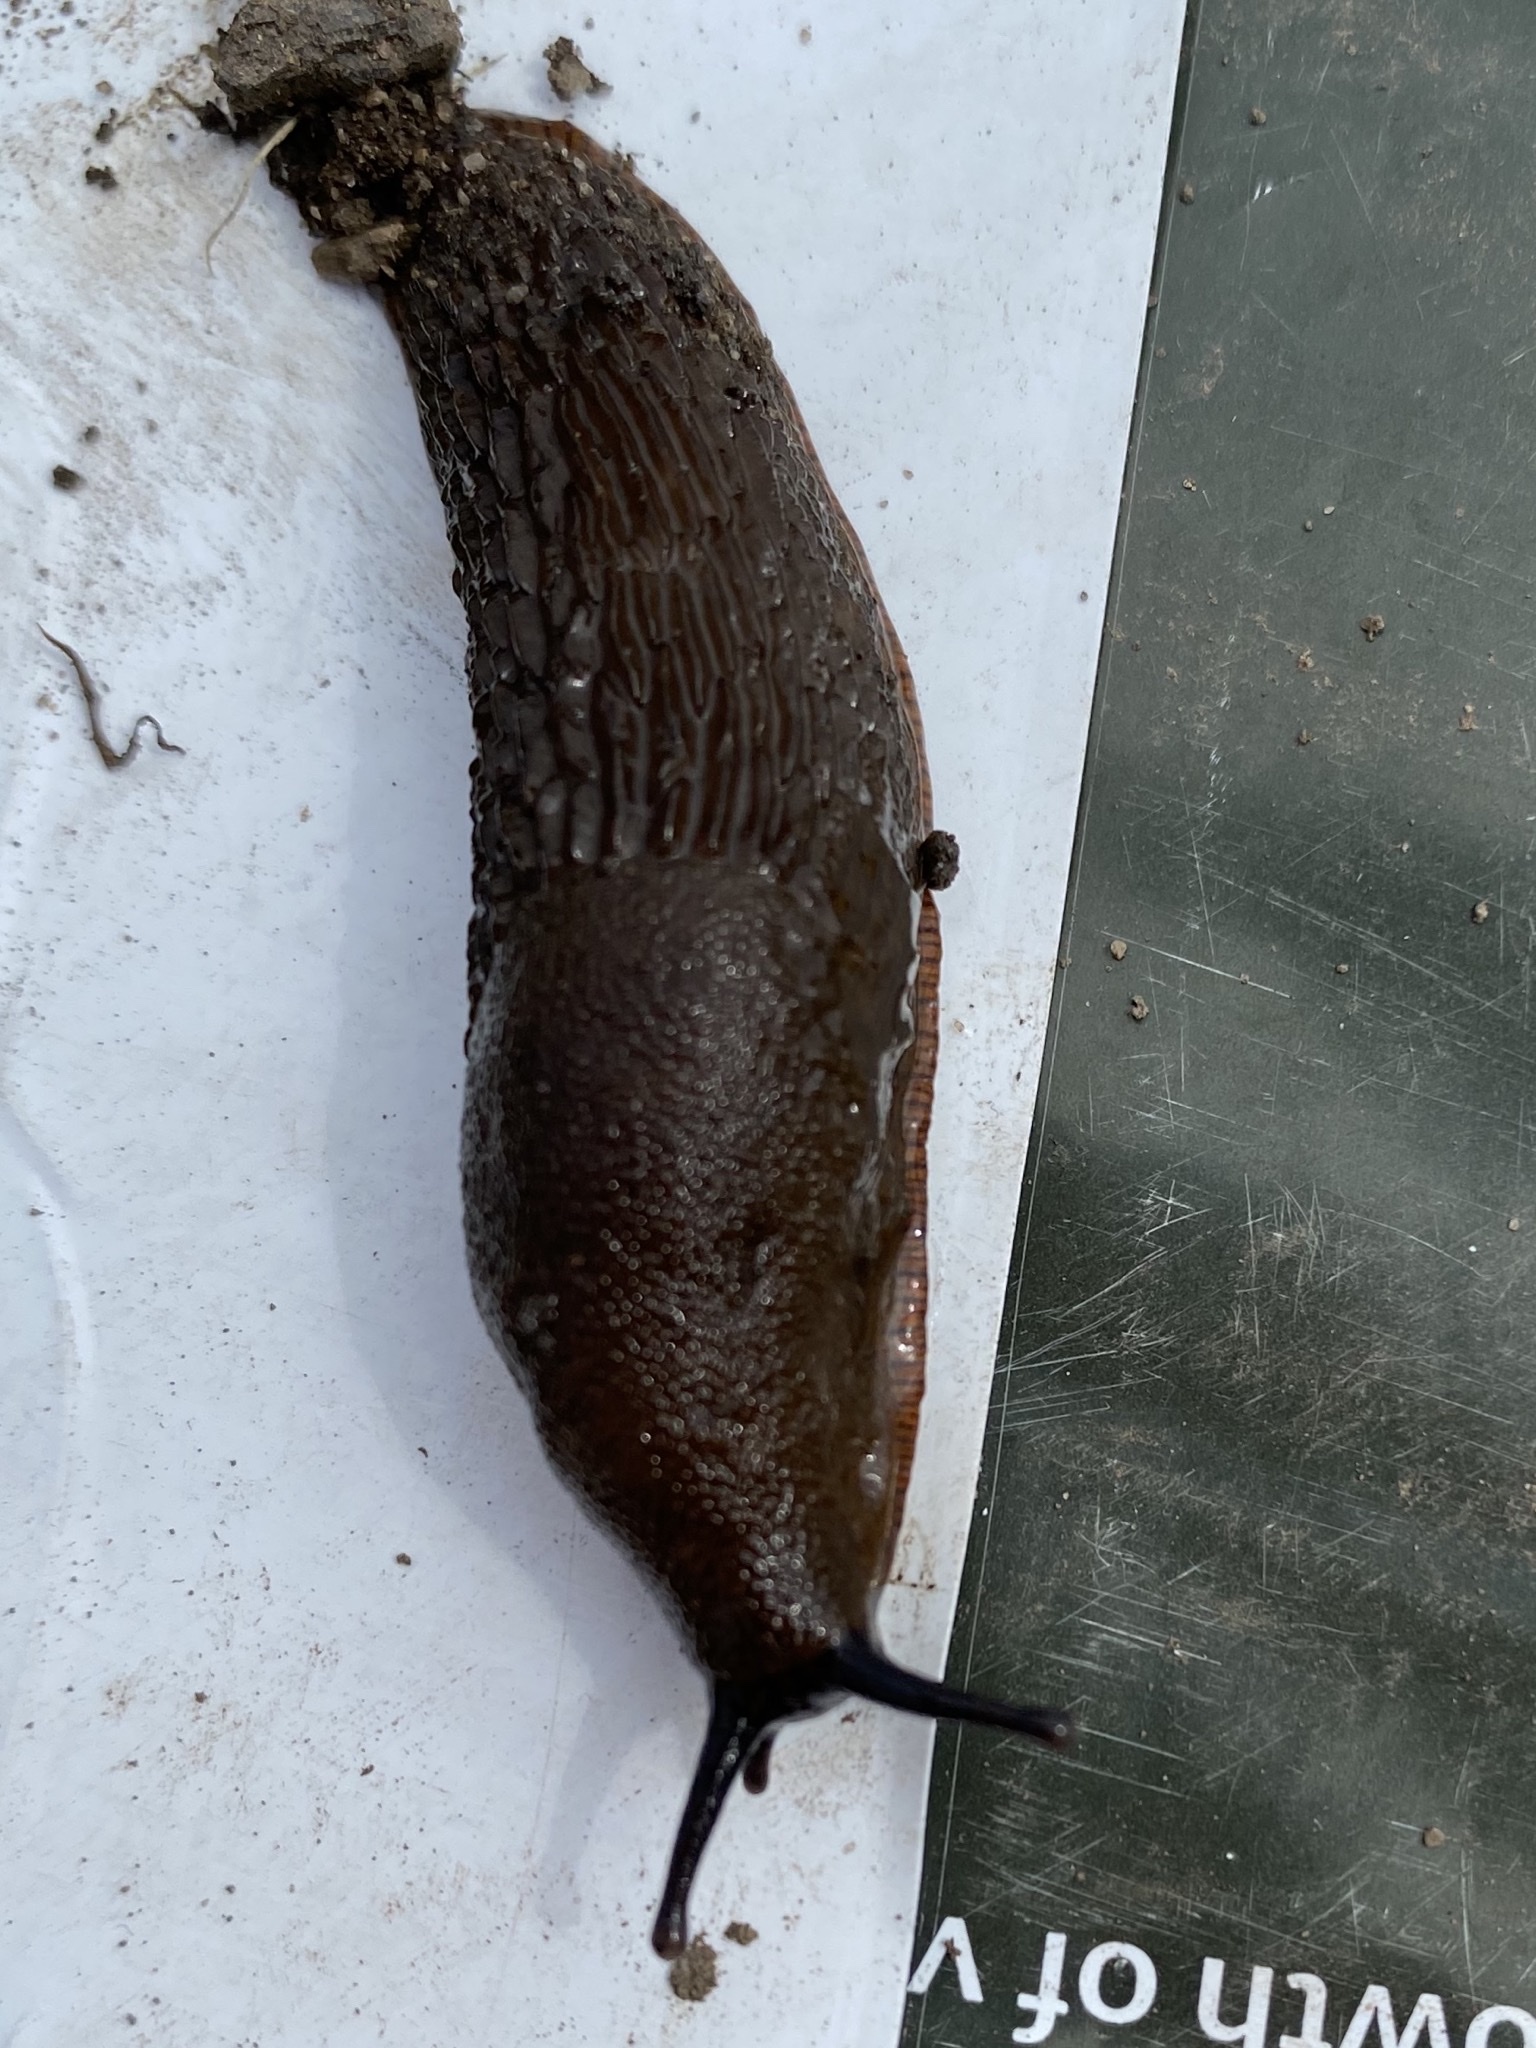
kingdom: Animalia
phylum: Mollusca
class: Gastropoda
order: Stylommatophora
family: Arionidae
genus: Arion
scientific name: Arion
